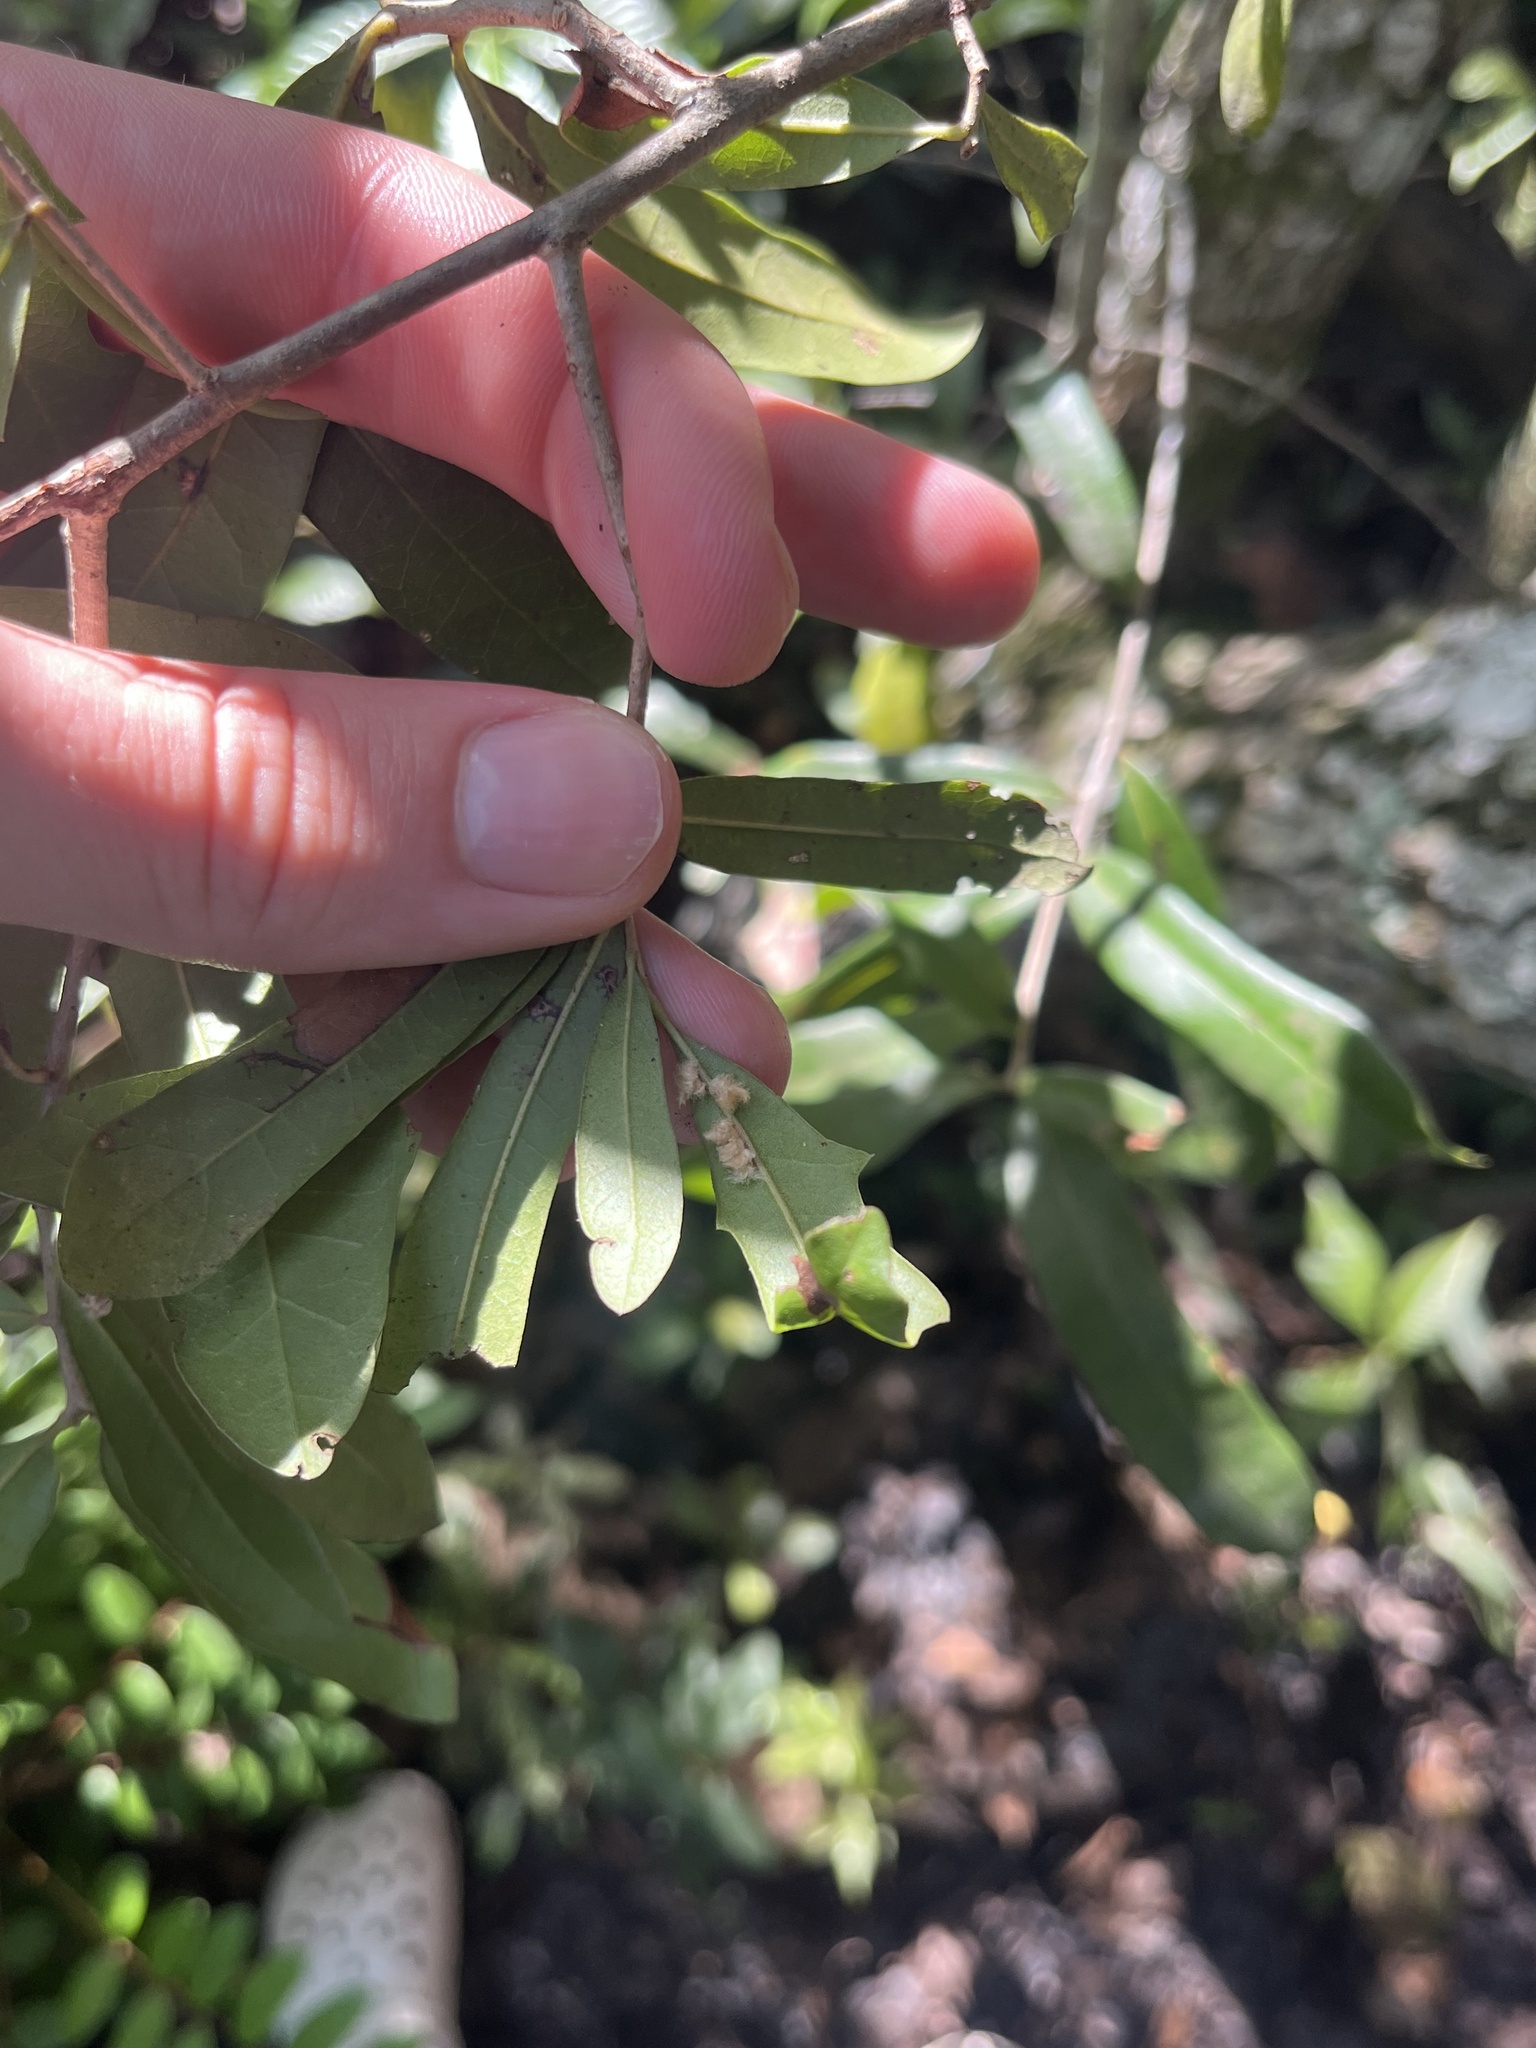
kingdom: Animalia
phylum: Arthropoda
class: Insecta
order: Hymenoptera
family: Cynipidae
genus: Andricus
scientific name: Andricus Druon quercuslanigerum
